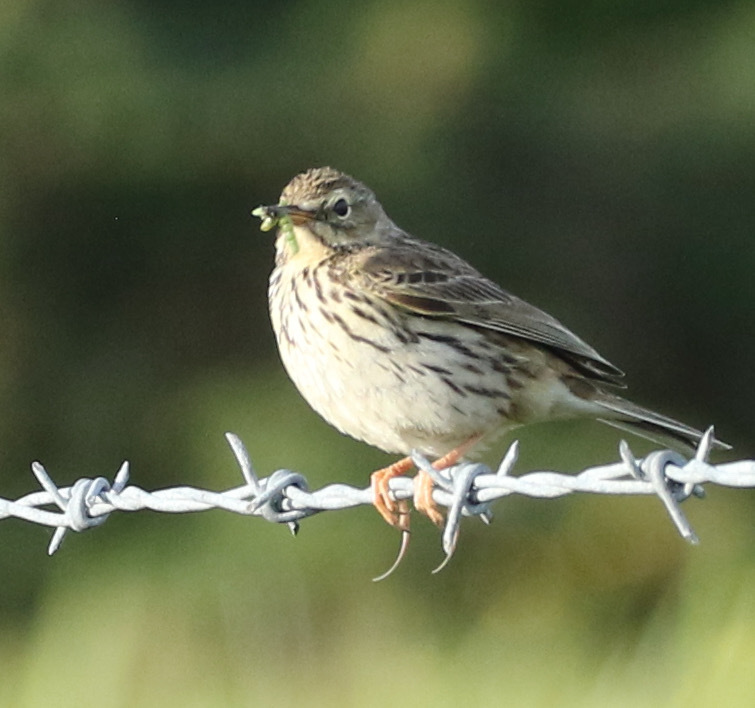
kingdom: Animalia
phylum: Chordata
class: Aves
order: Passeriformes
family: Motacillidae
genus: Anthus
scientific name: Anthus pratensis
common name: Meadow pipit
